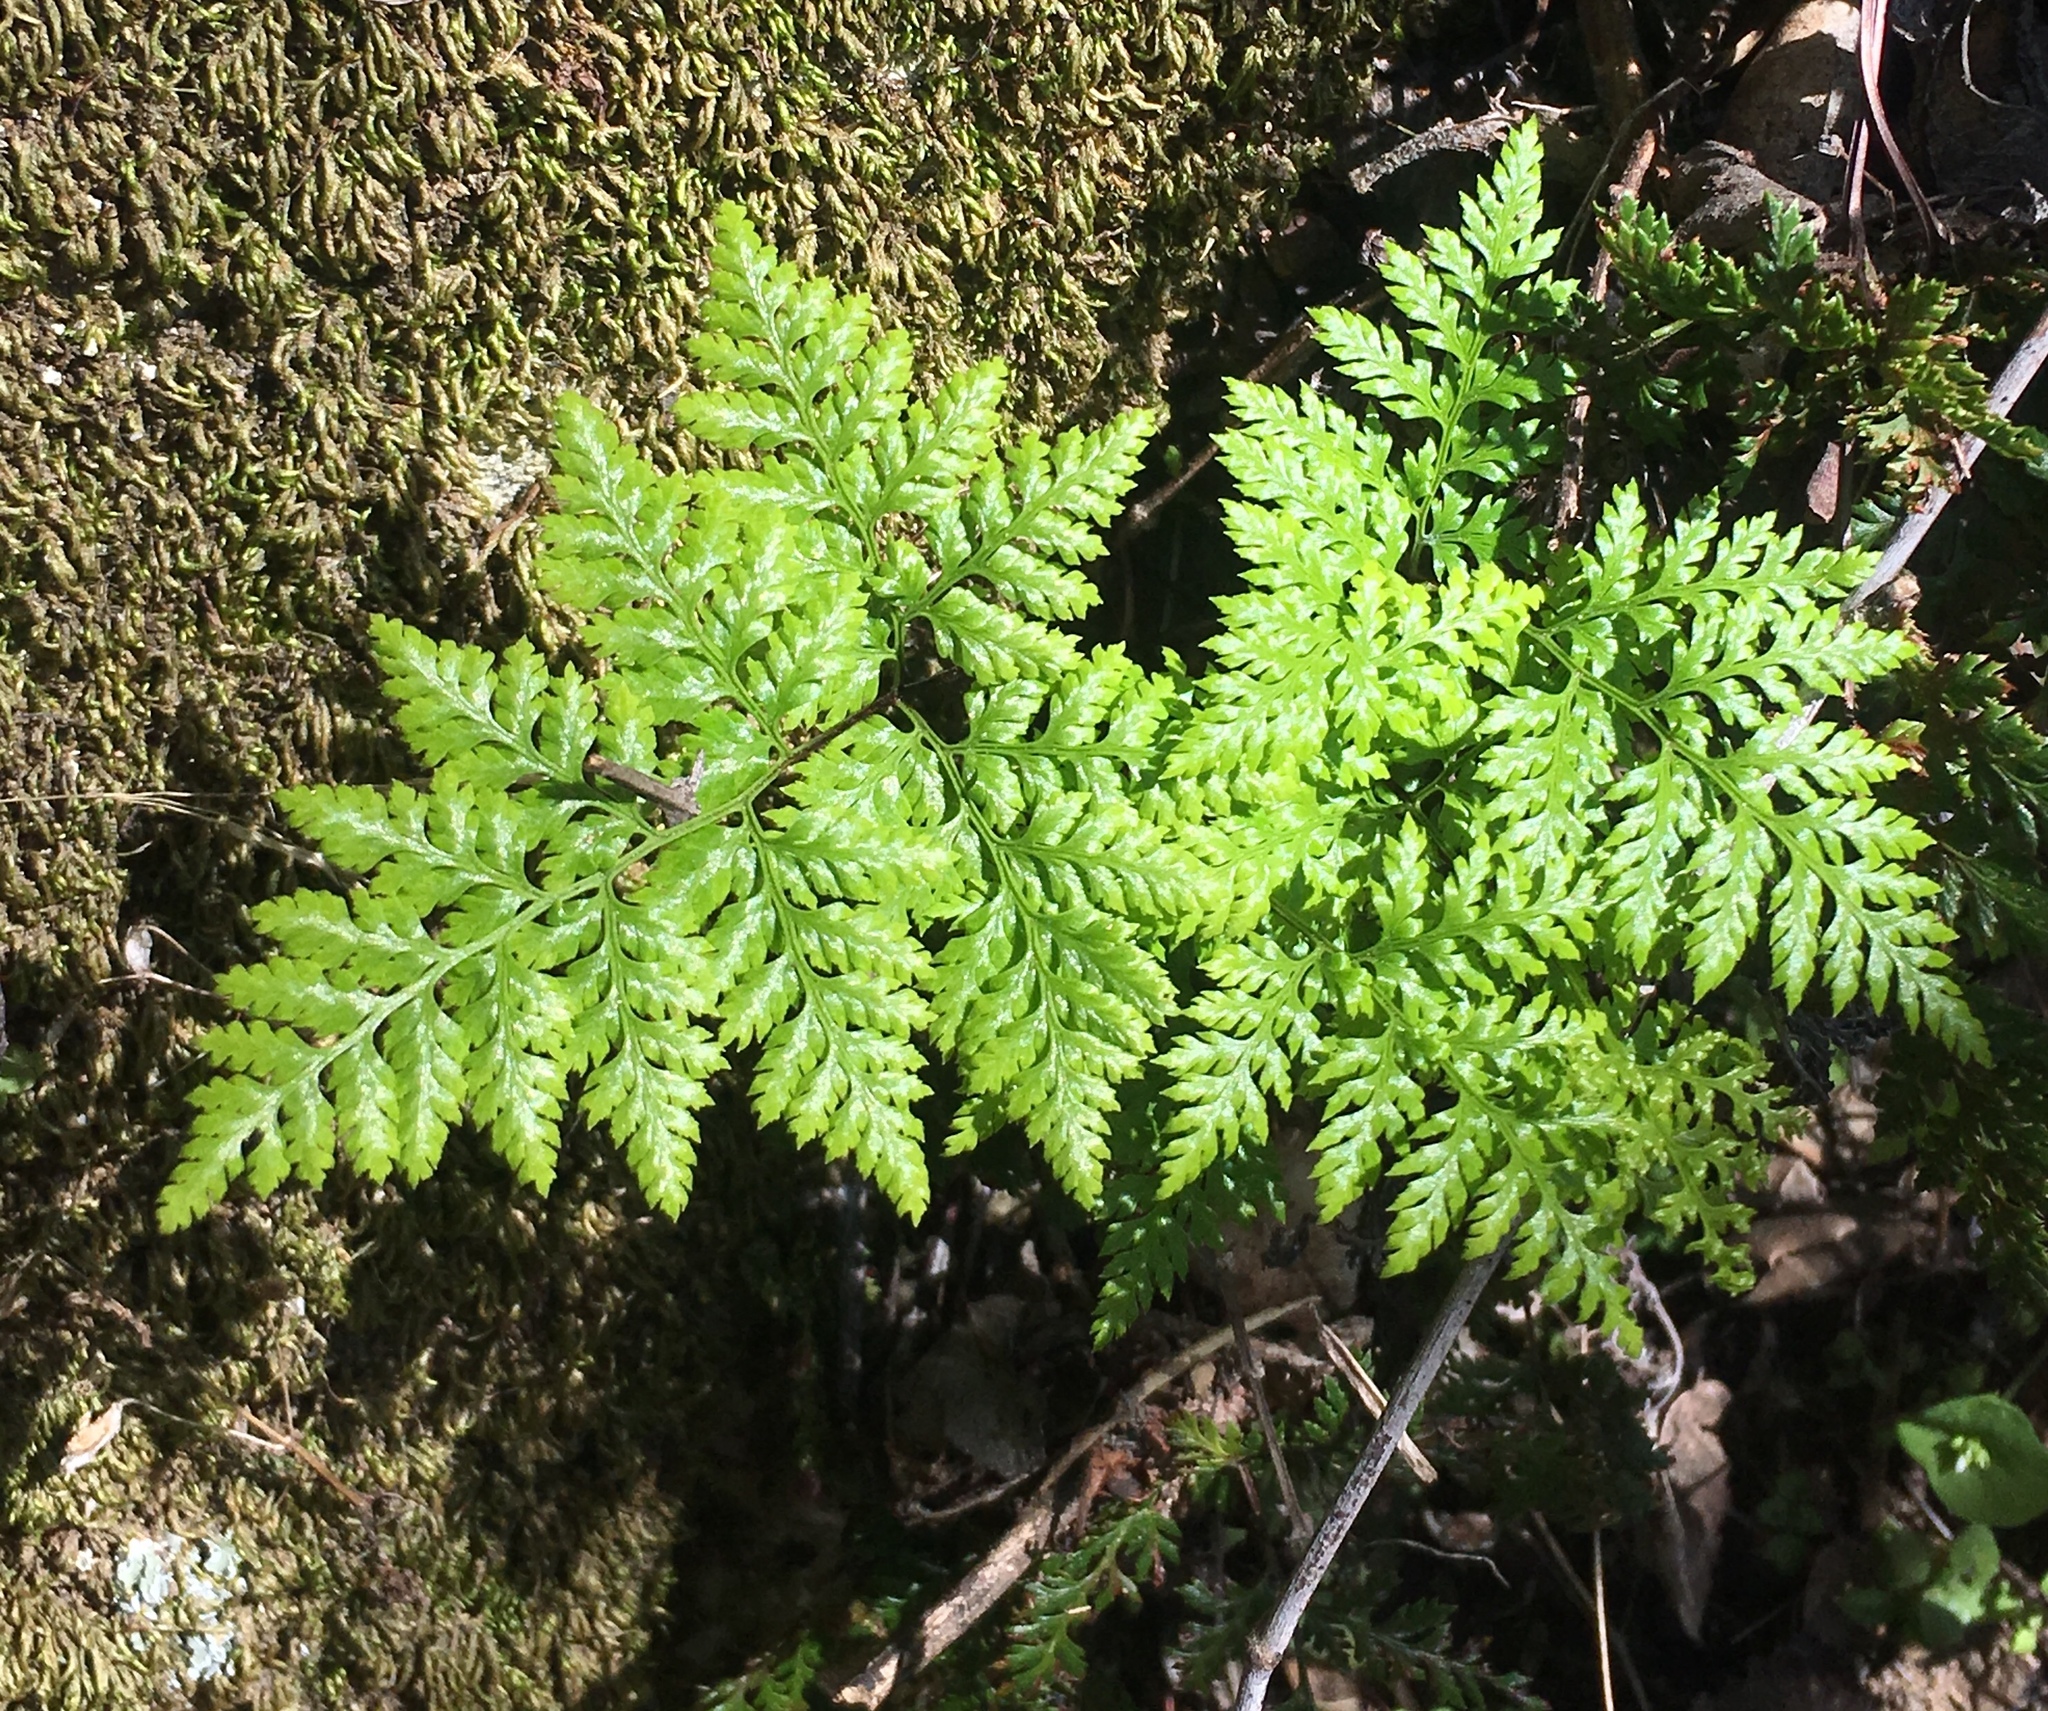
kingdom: Plantae
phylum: Tracheophyta
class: Polypodiopsida
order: Polypodiales
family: Pteridaceae
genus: Aspidotis
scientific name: Aspidotis californica
